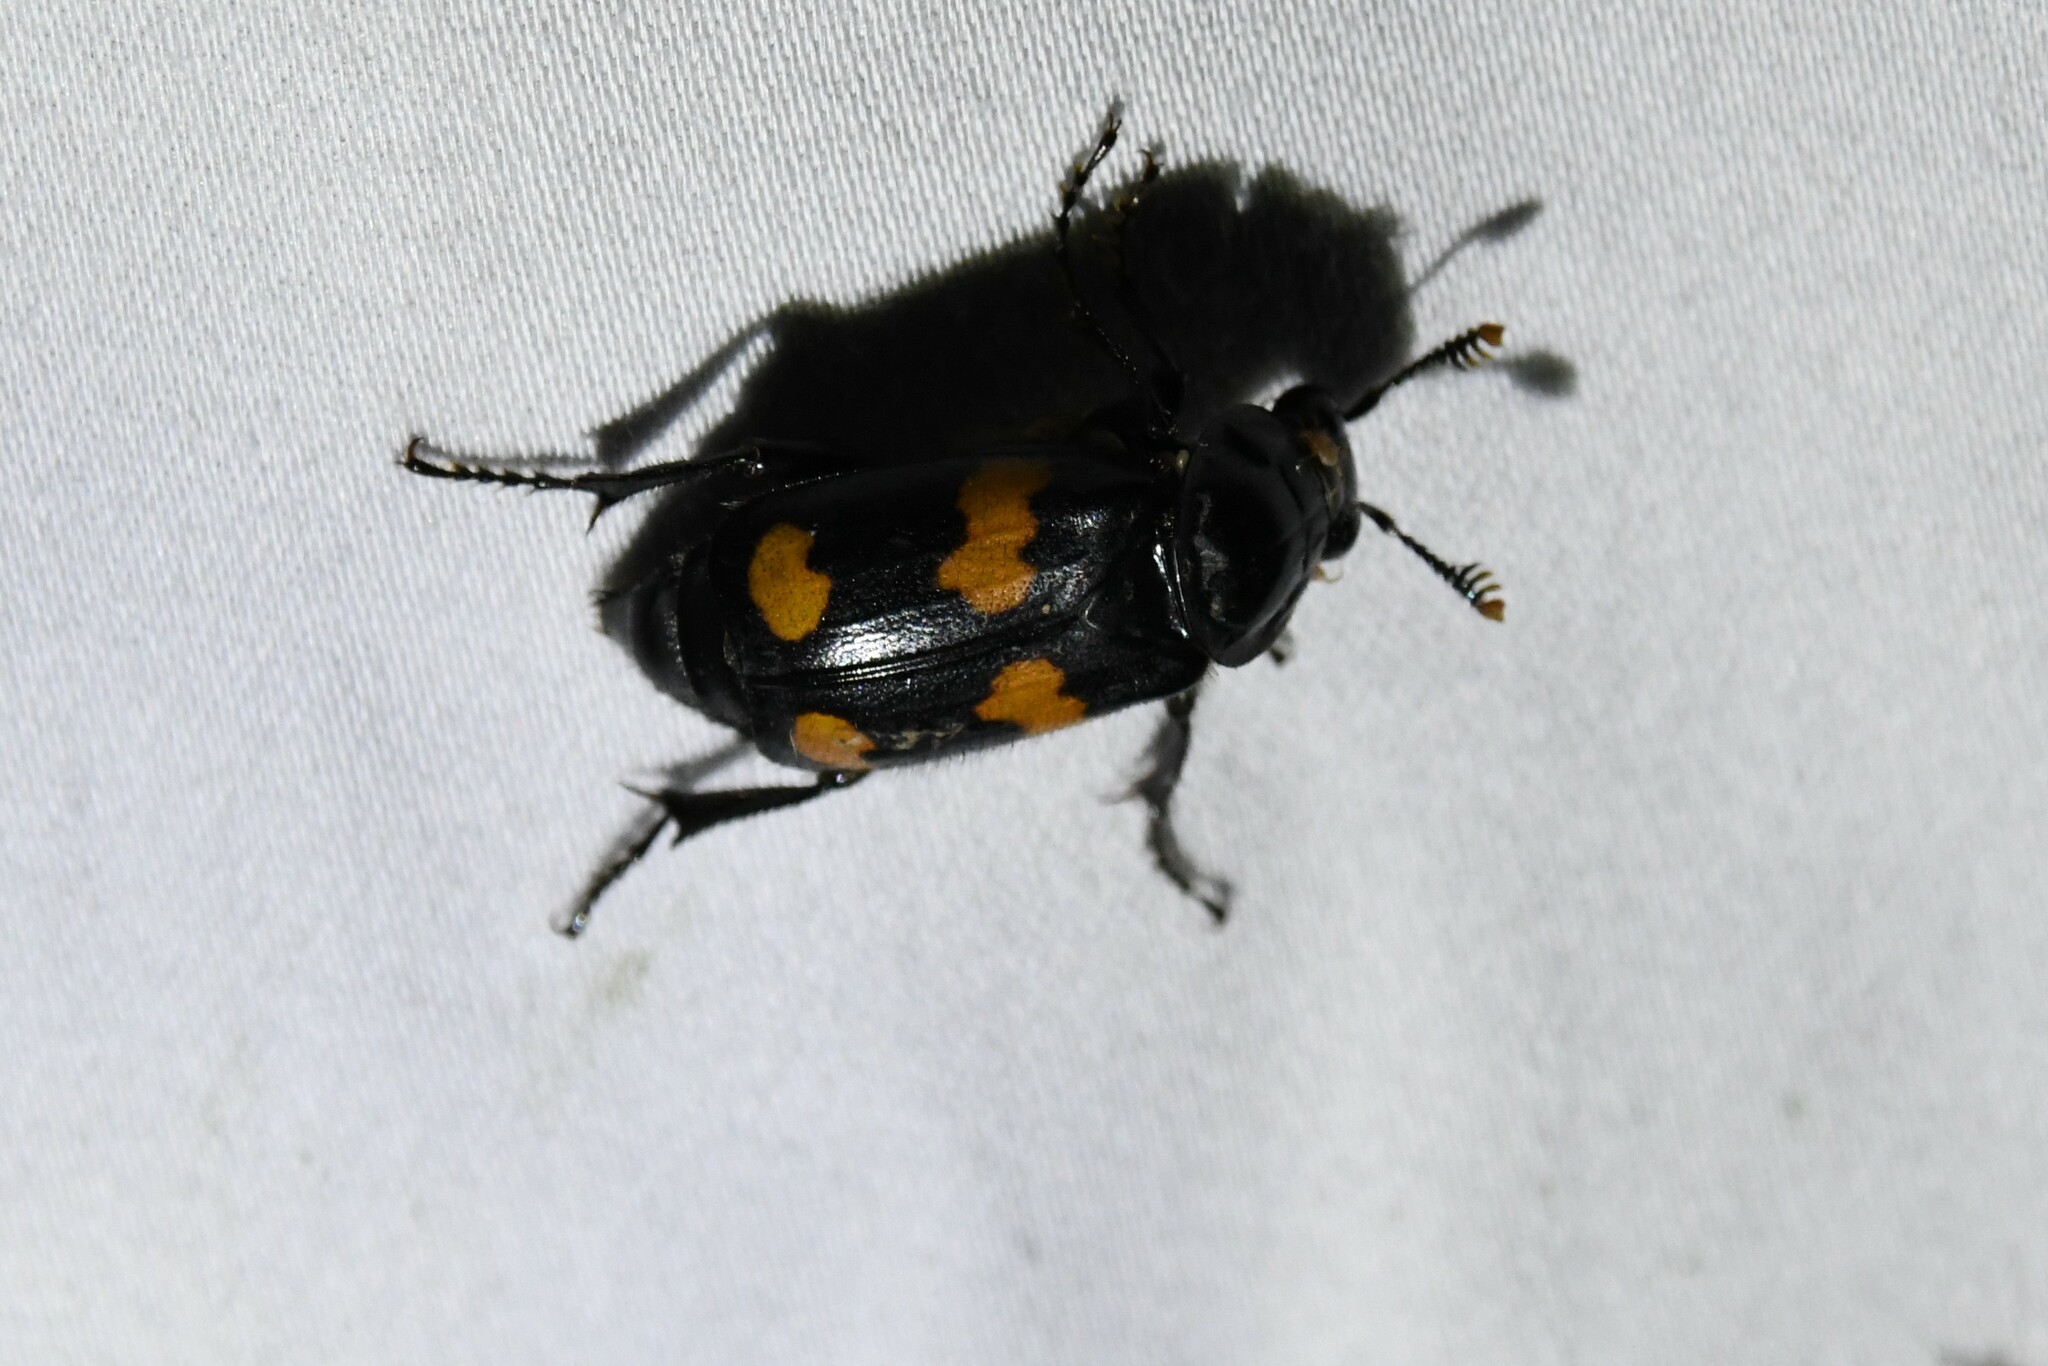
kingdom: Animalia
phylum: Arthropoda
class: Insecta
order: Coleoptera
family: Staphylinidae
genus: Nicrophorus
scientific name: Nicrophorus orbicollis
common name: Roundneck sexton beetle
